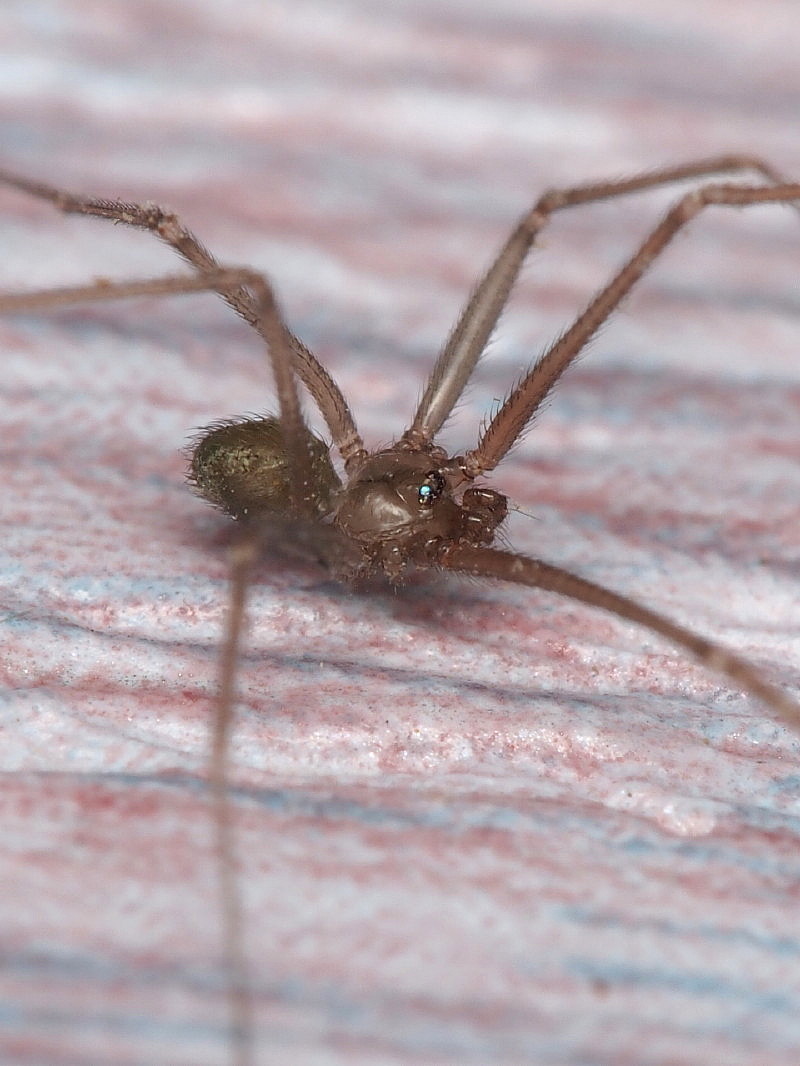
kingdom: Animalia
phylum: Arthropoda
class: Arachnida
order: Araneae
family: Pholcidae
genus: Psilochorus
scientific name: Psilochorus simoni
